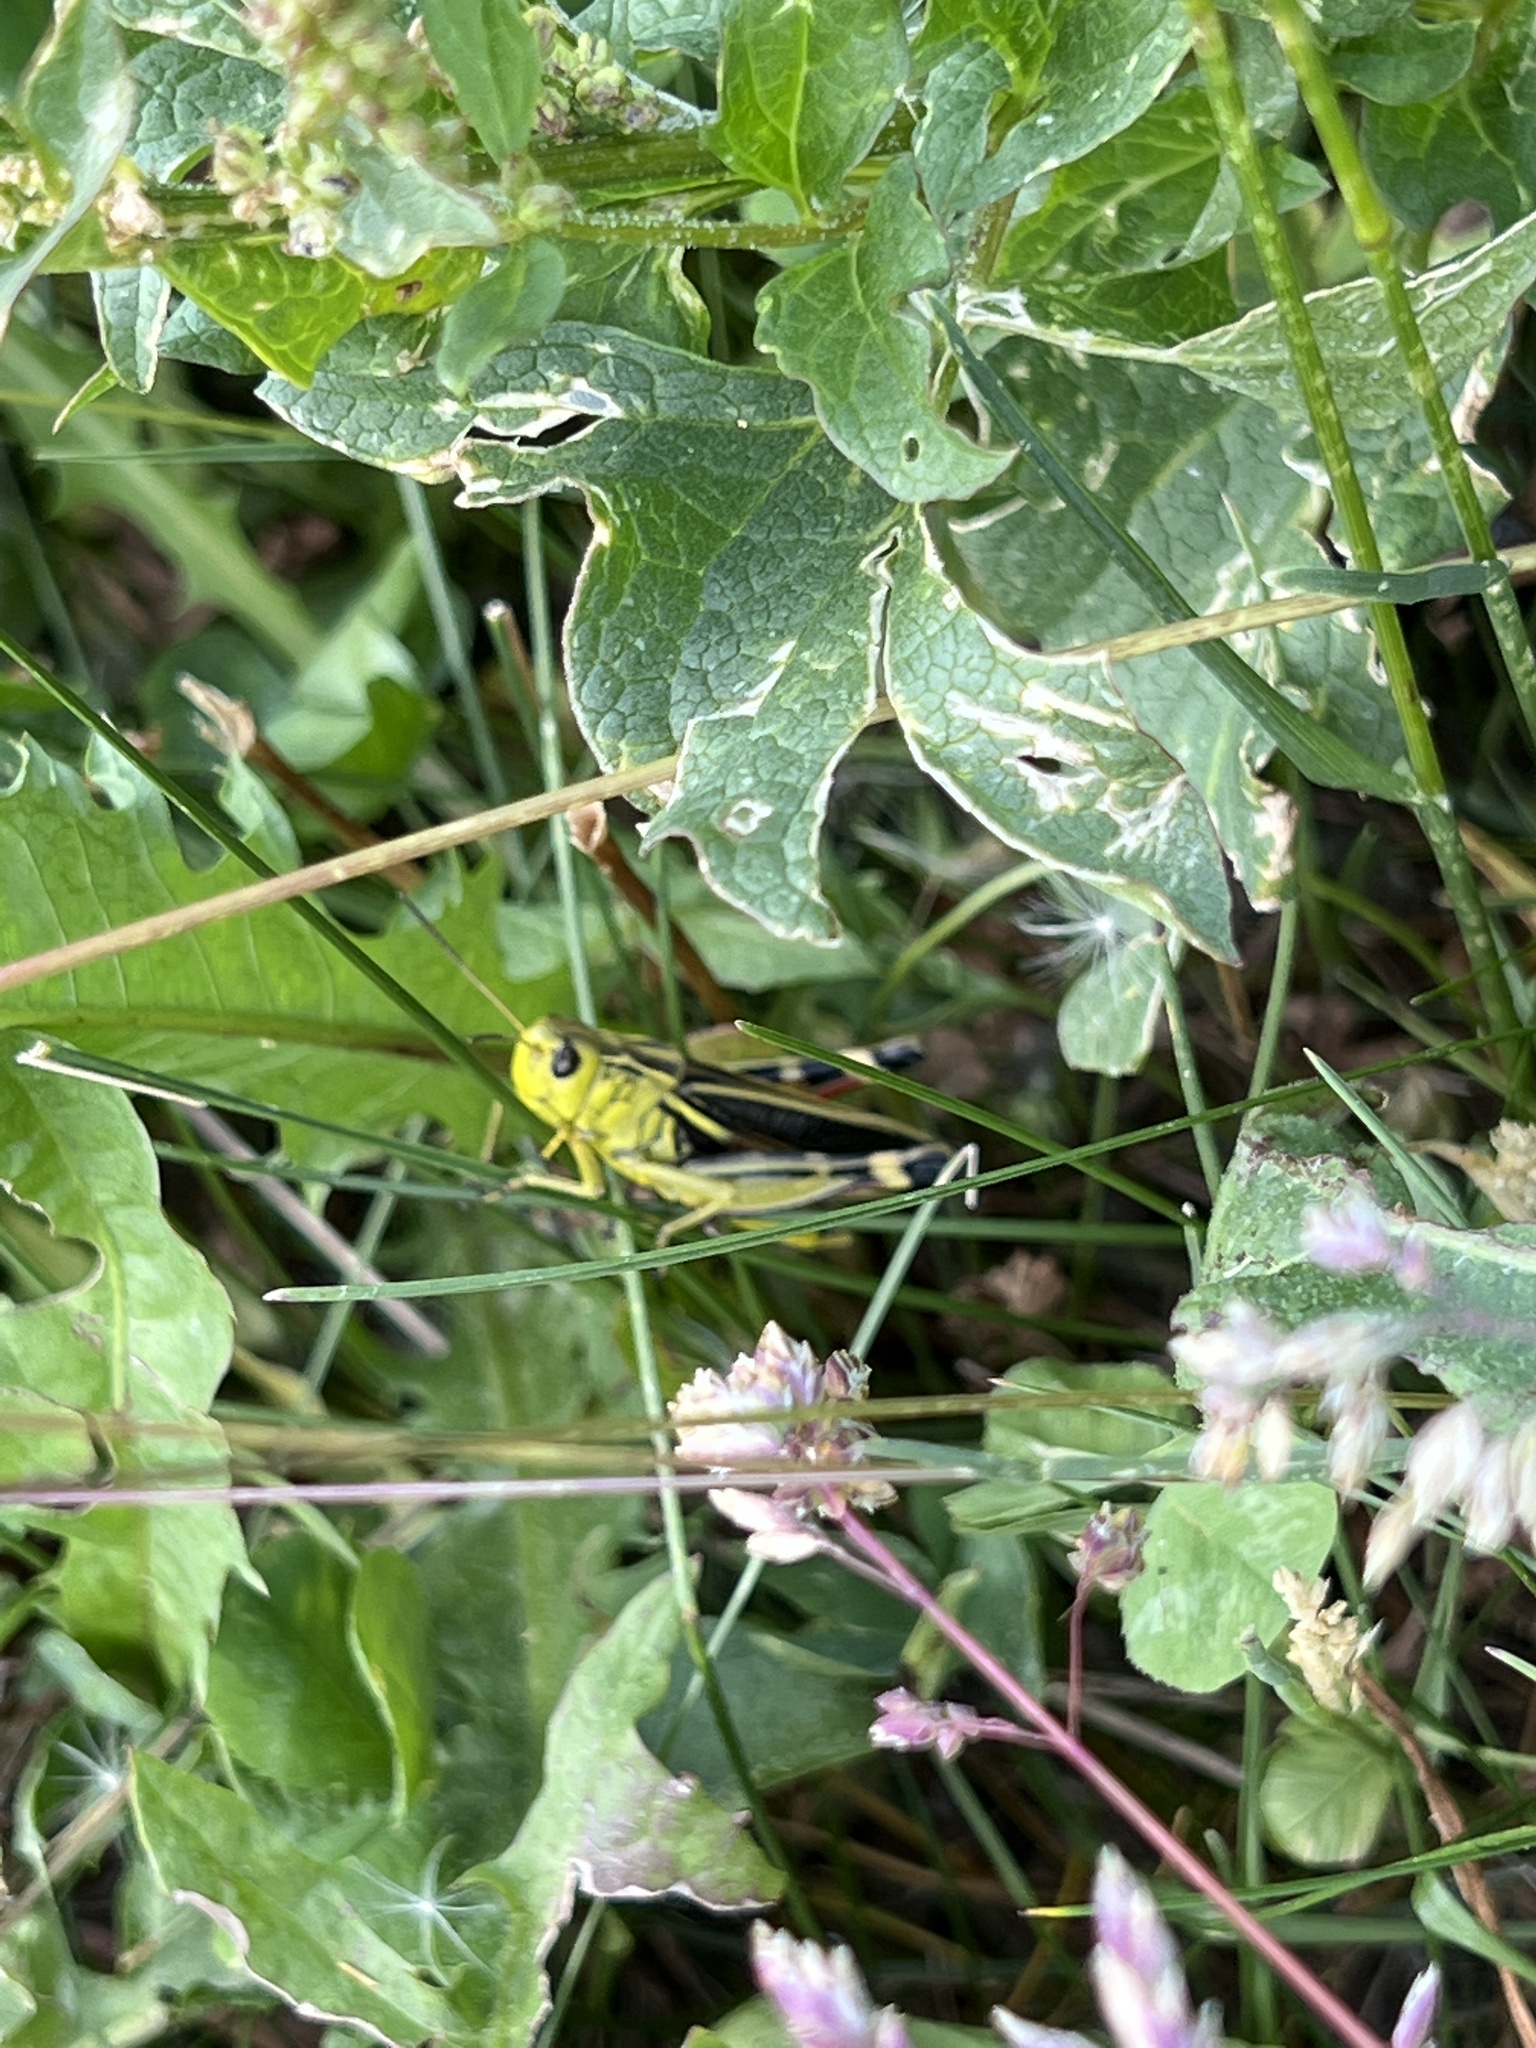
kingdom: Animalia
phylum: Arthropoda
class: Insecta
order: Orthoptera
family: Acrididae
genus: Arcyptera
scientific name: Arcyptera fusca
